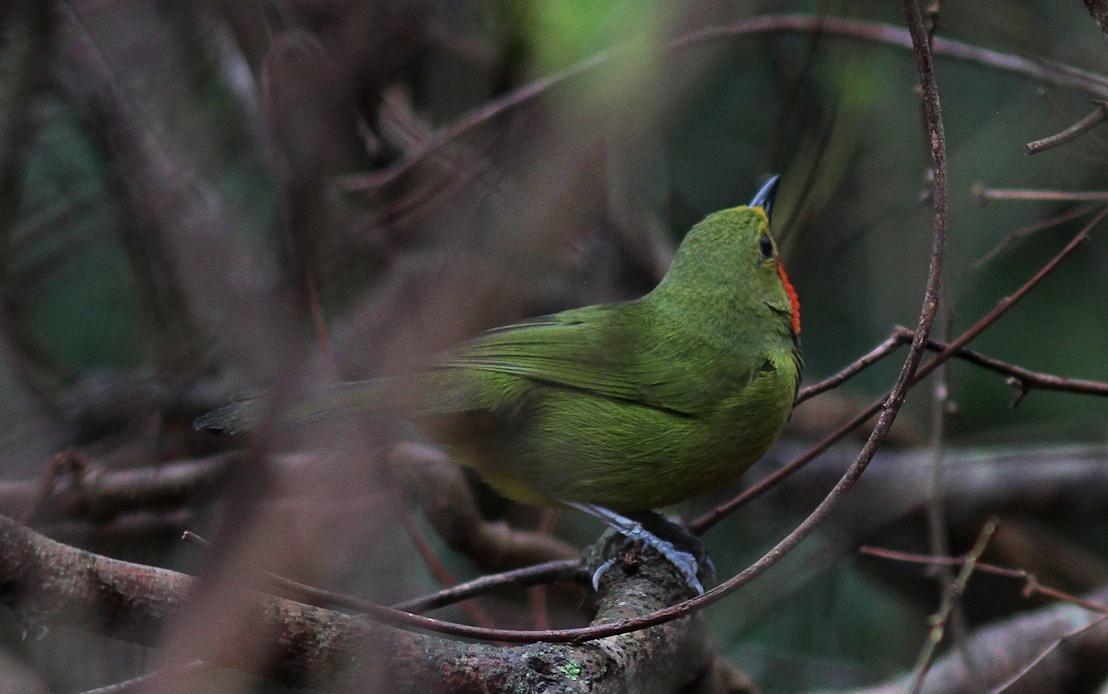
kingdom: Animalia
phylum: Chordata
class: Aves
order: Passeriformes
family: Malaconotidae
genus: Telophorus
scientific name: Telophorus viridis
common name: Gorgeous bushshrike
